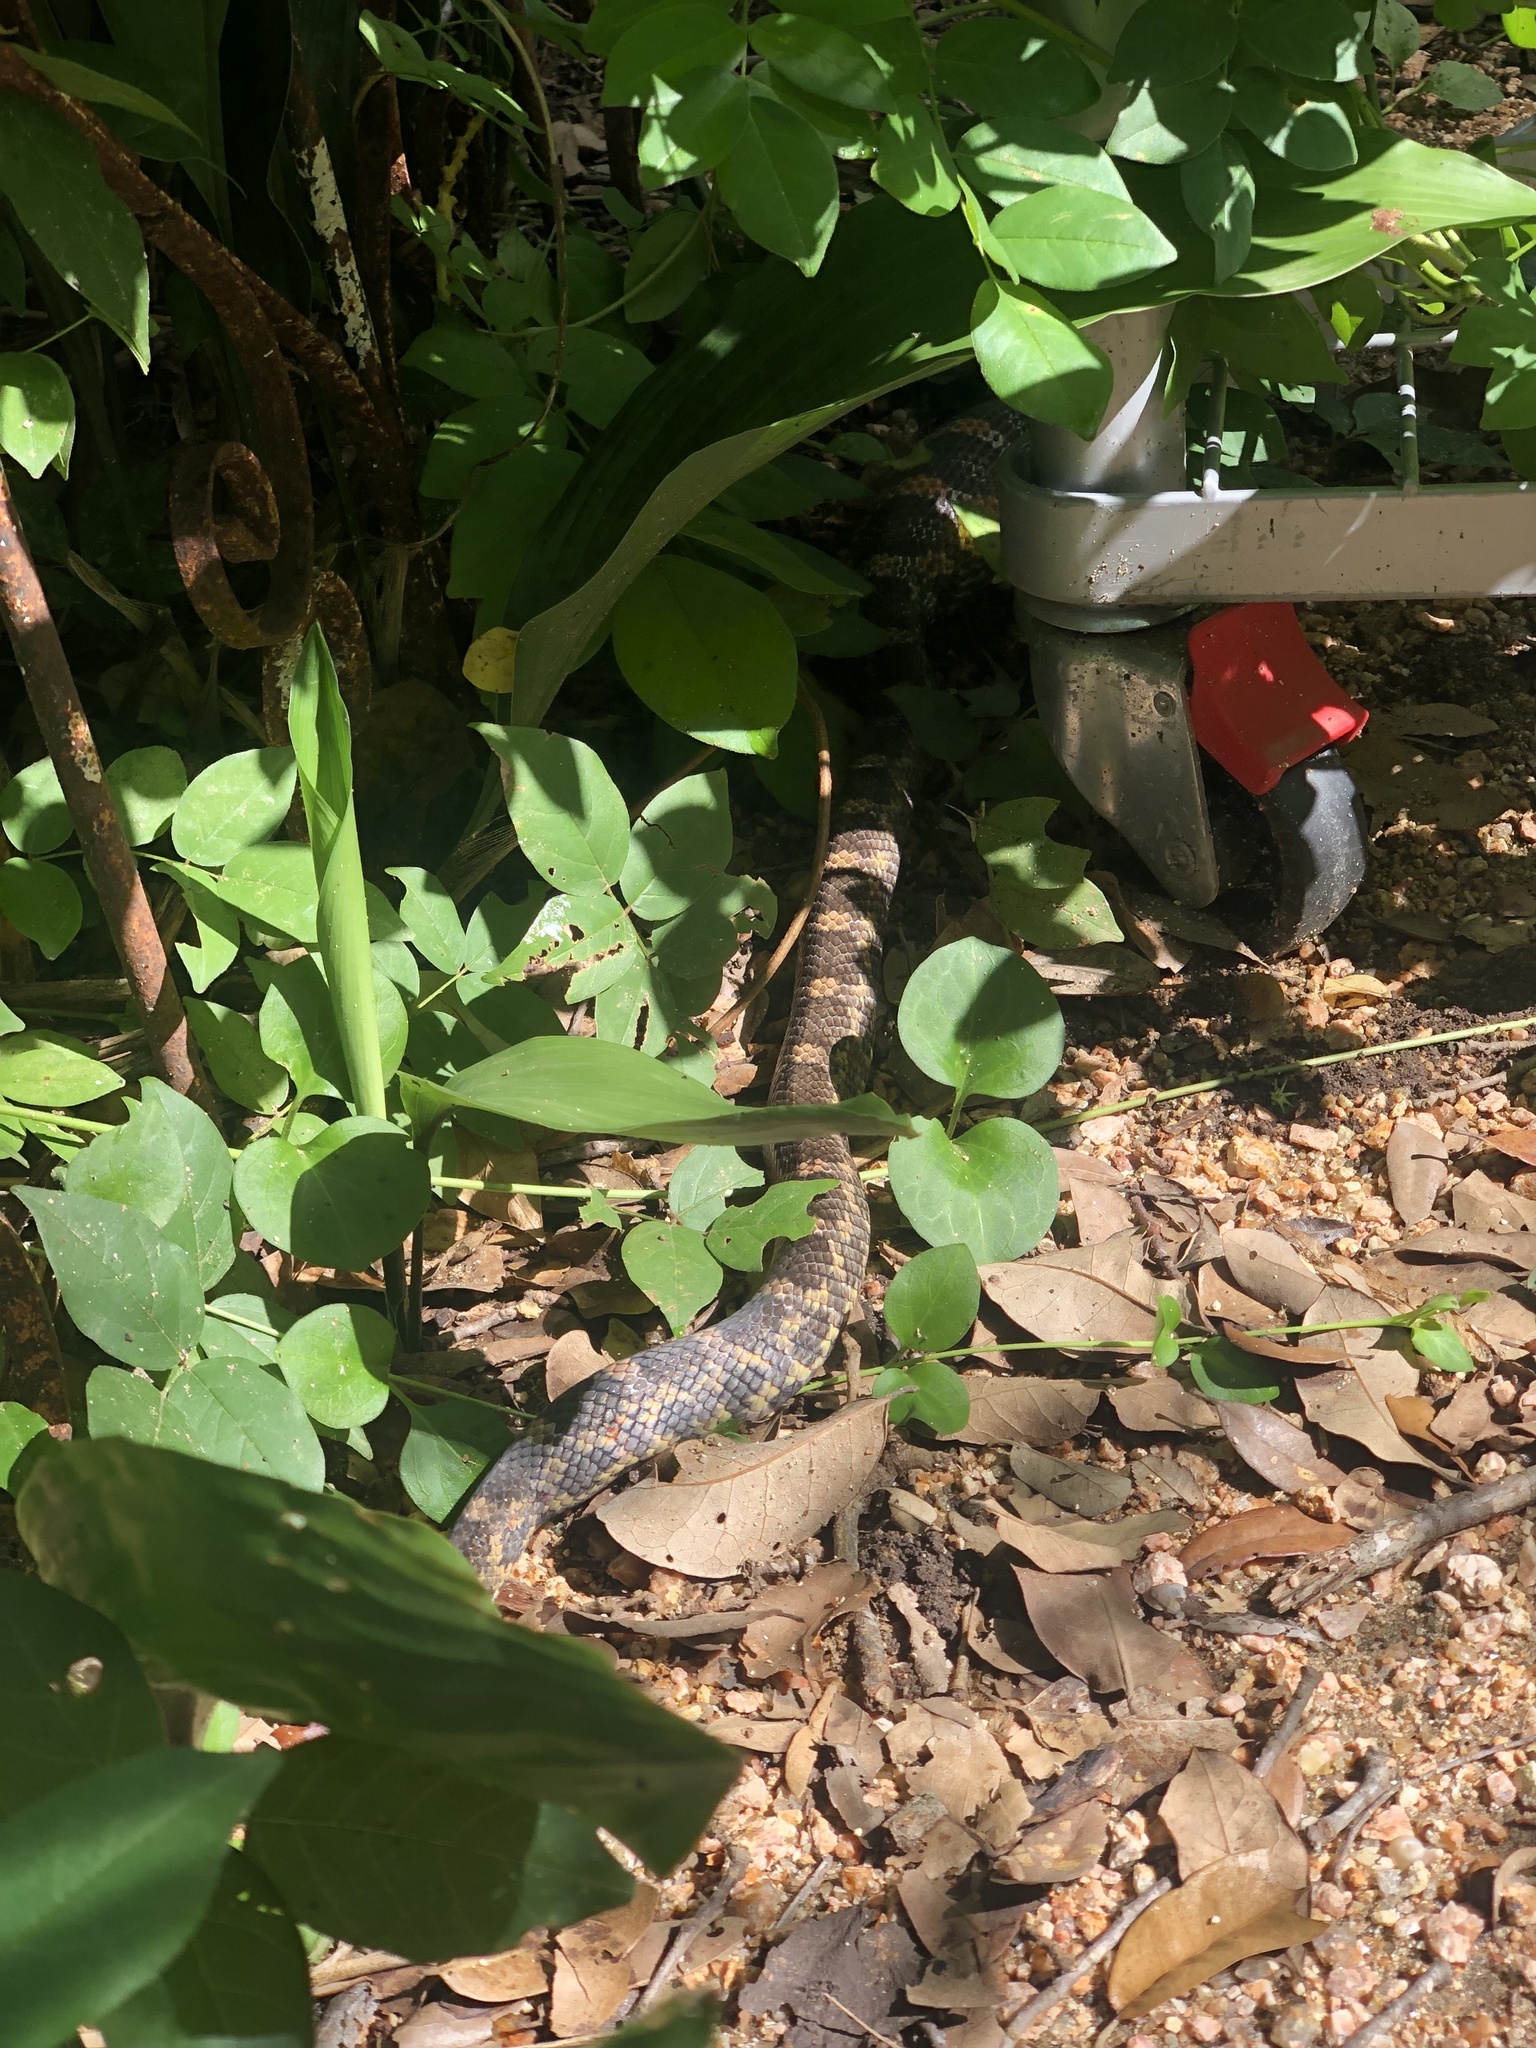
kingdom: Animalia
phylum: Chordata
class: Squamata
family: Colubridae
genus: Pantherophis
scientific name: Pantherophis obsoletus
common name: Black rat snake
